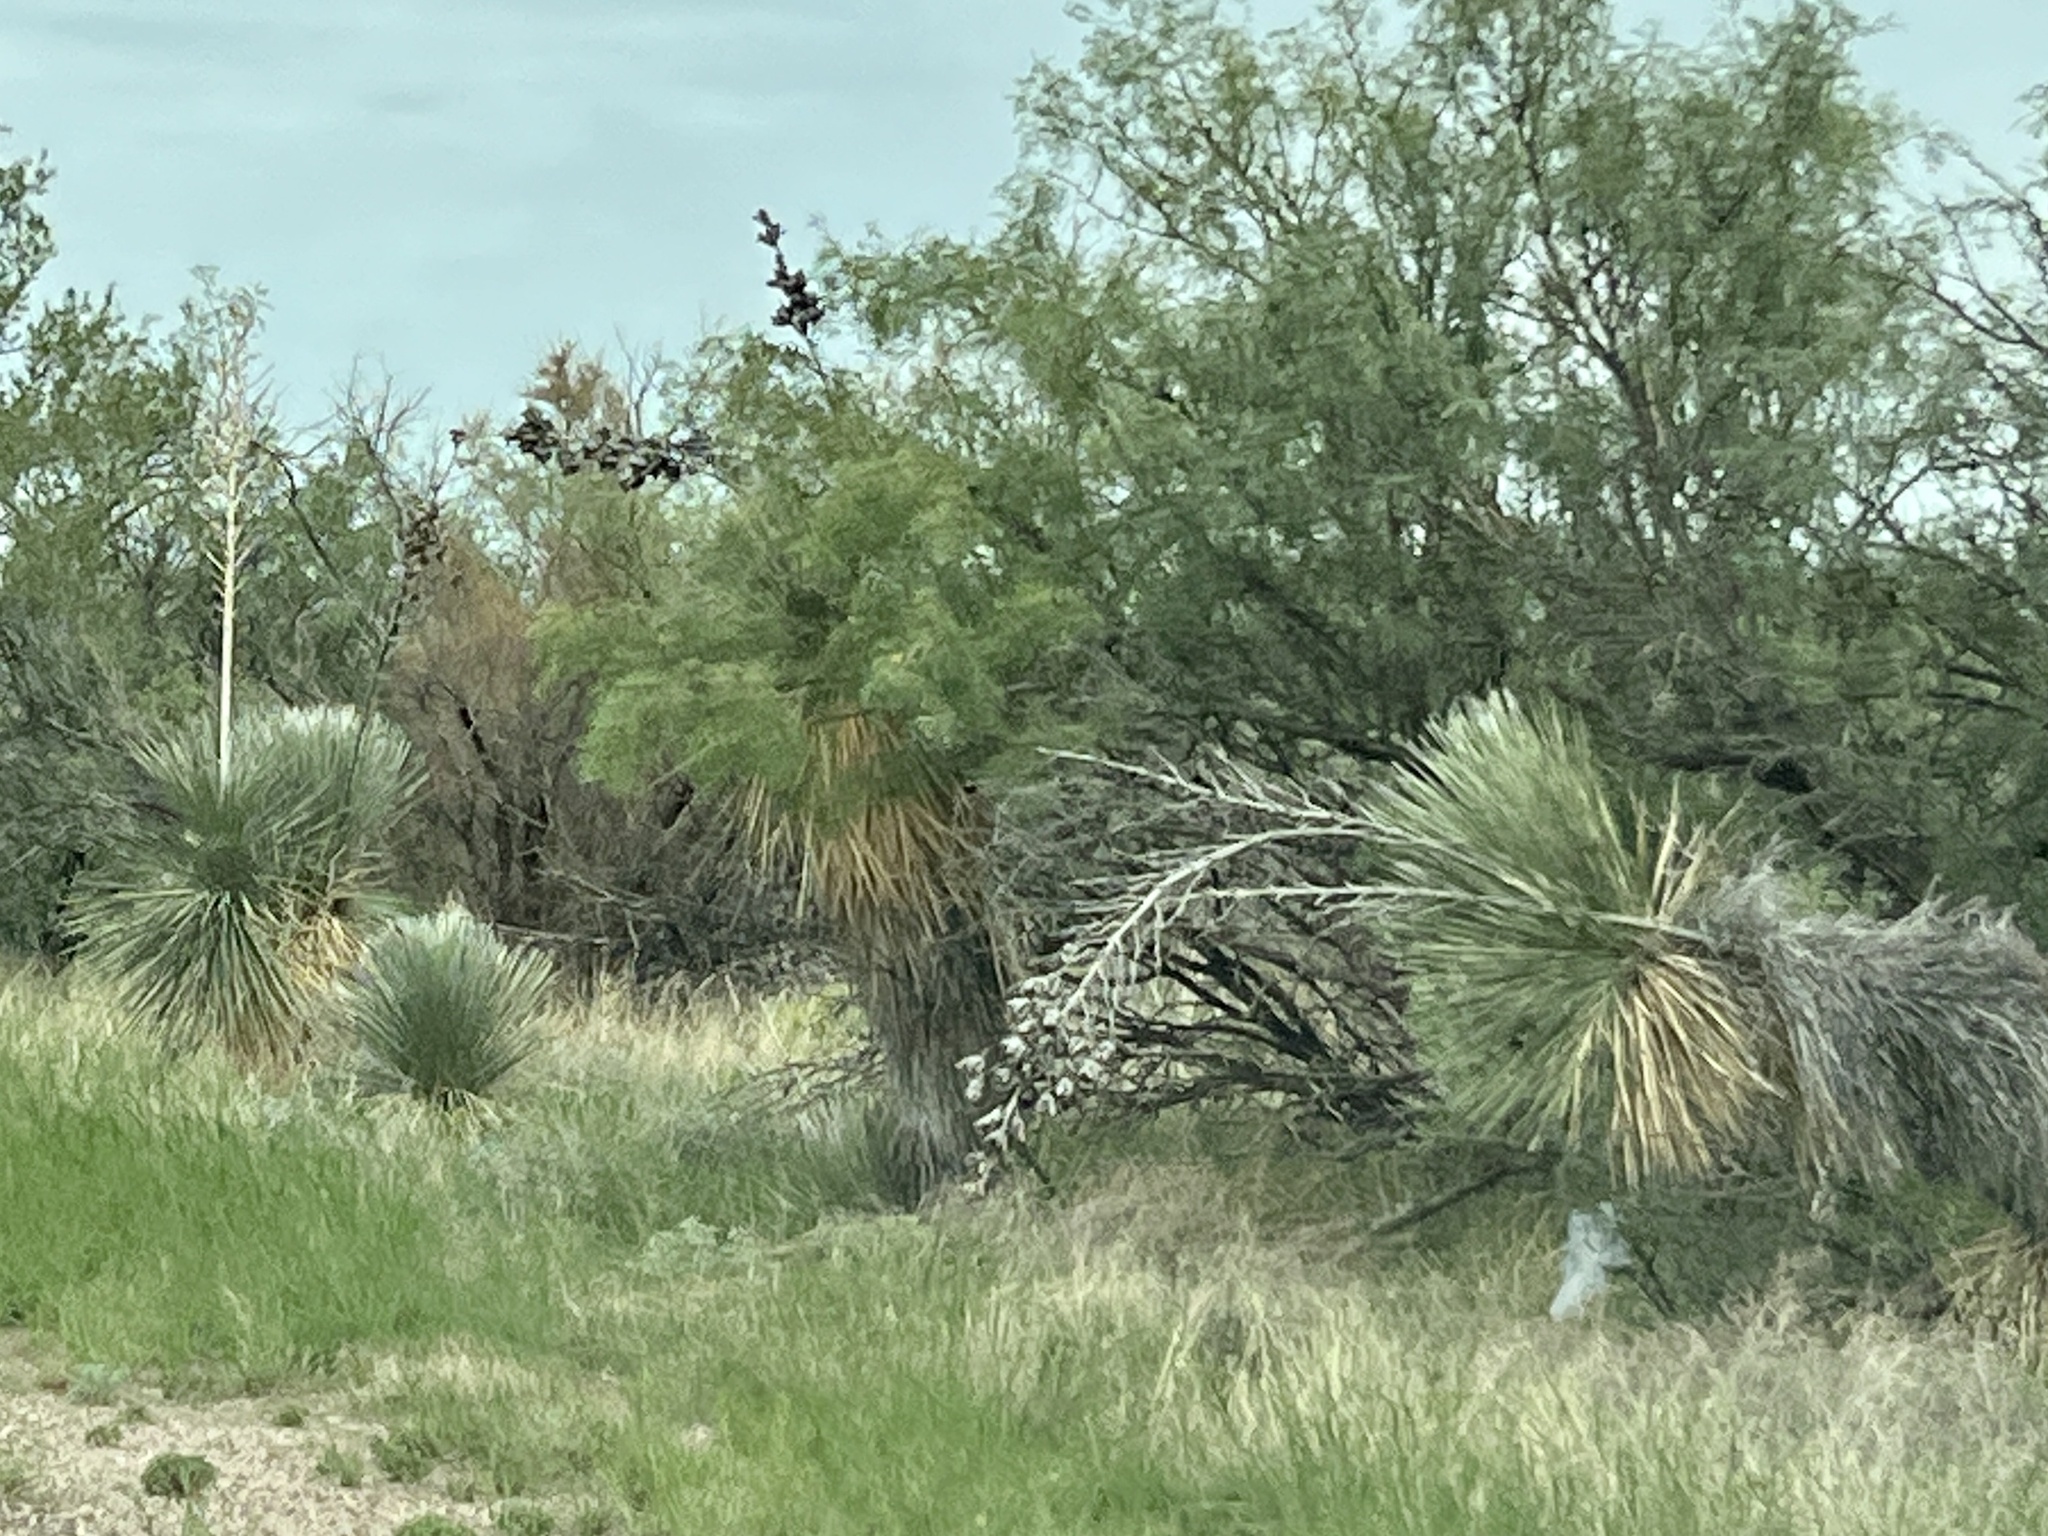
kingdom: Plantae
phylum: Tracheophyta
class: Liliopsida
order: Asparagales
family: Asparagaceae
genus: Yucca
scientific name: Yucca elata
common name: Palmella
